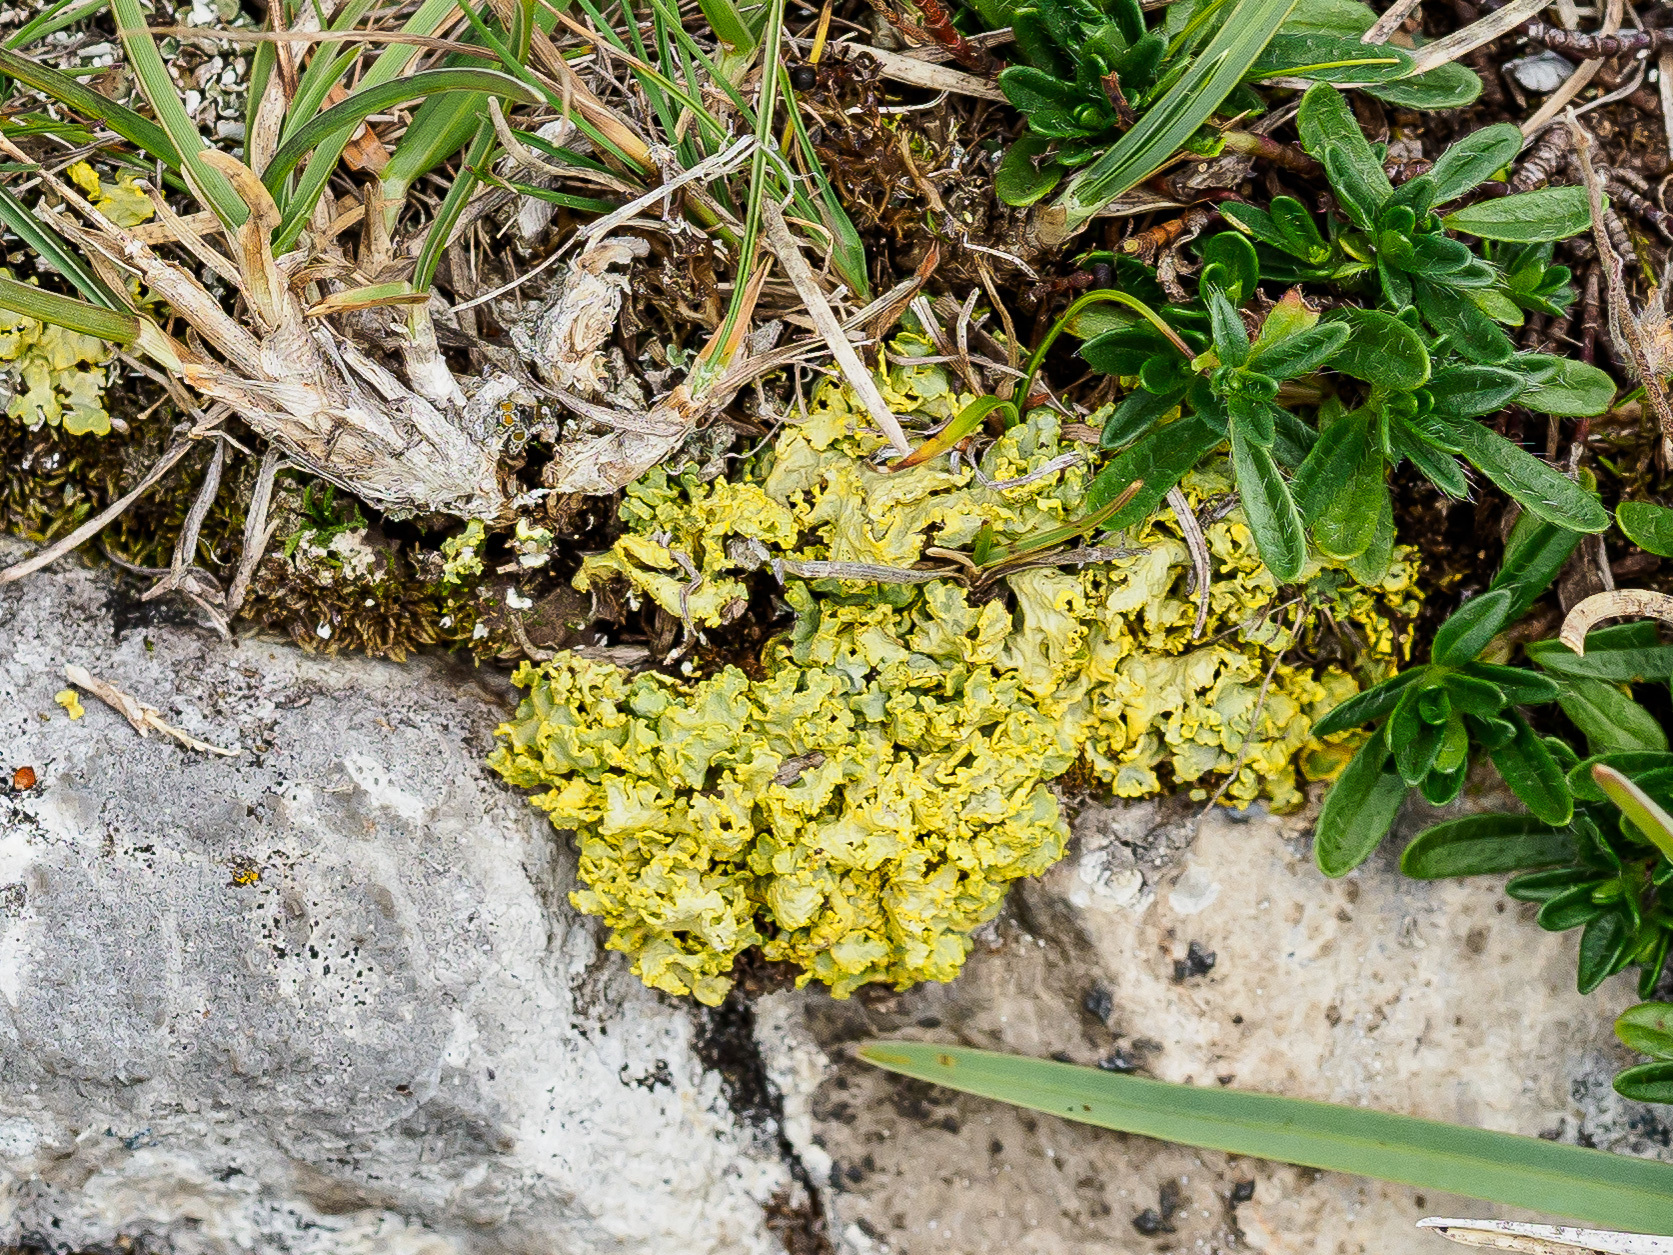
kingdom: Fungi
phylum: Ascomycota
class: Lecanoromycetes
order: Lecanorales
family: Parmeliaceae
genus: Vulpicida
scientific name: Vulpicida tubulosus
